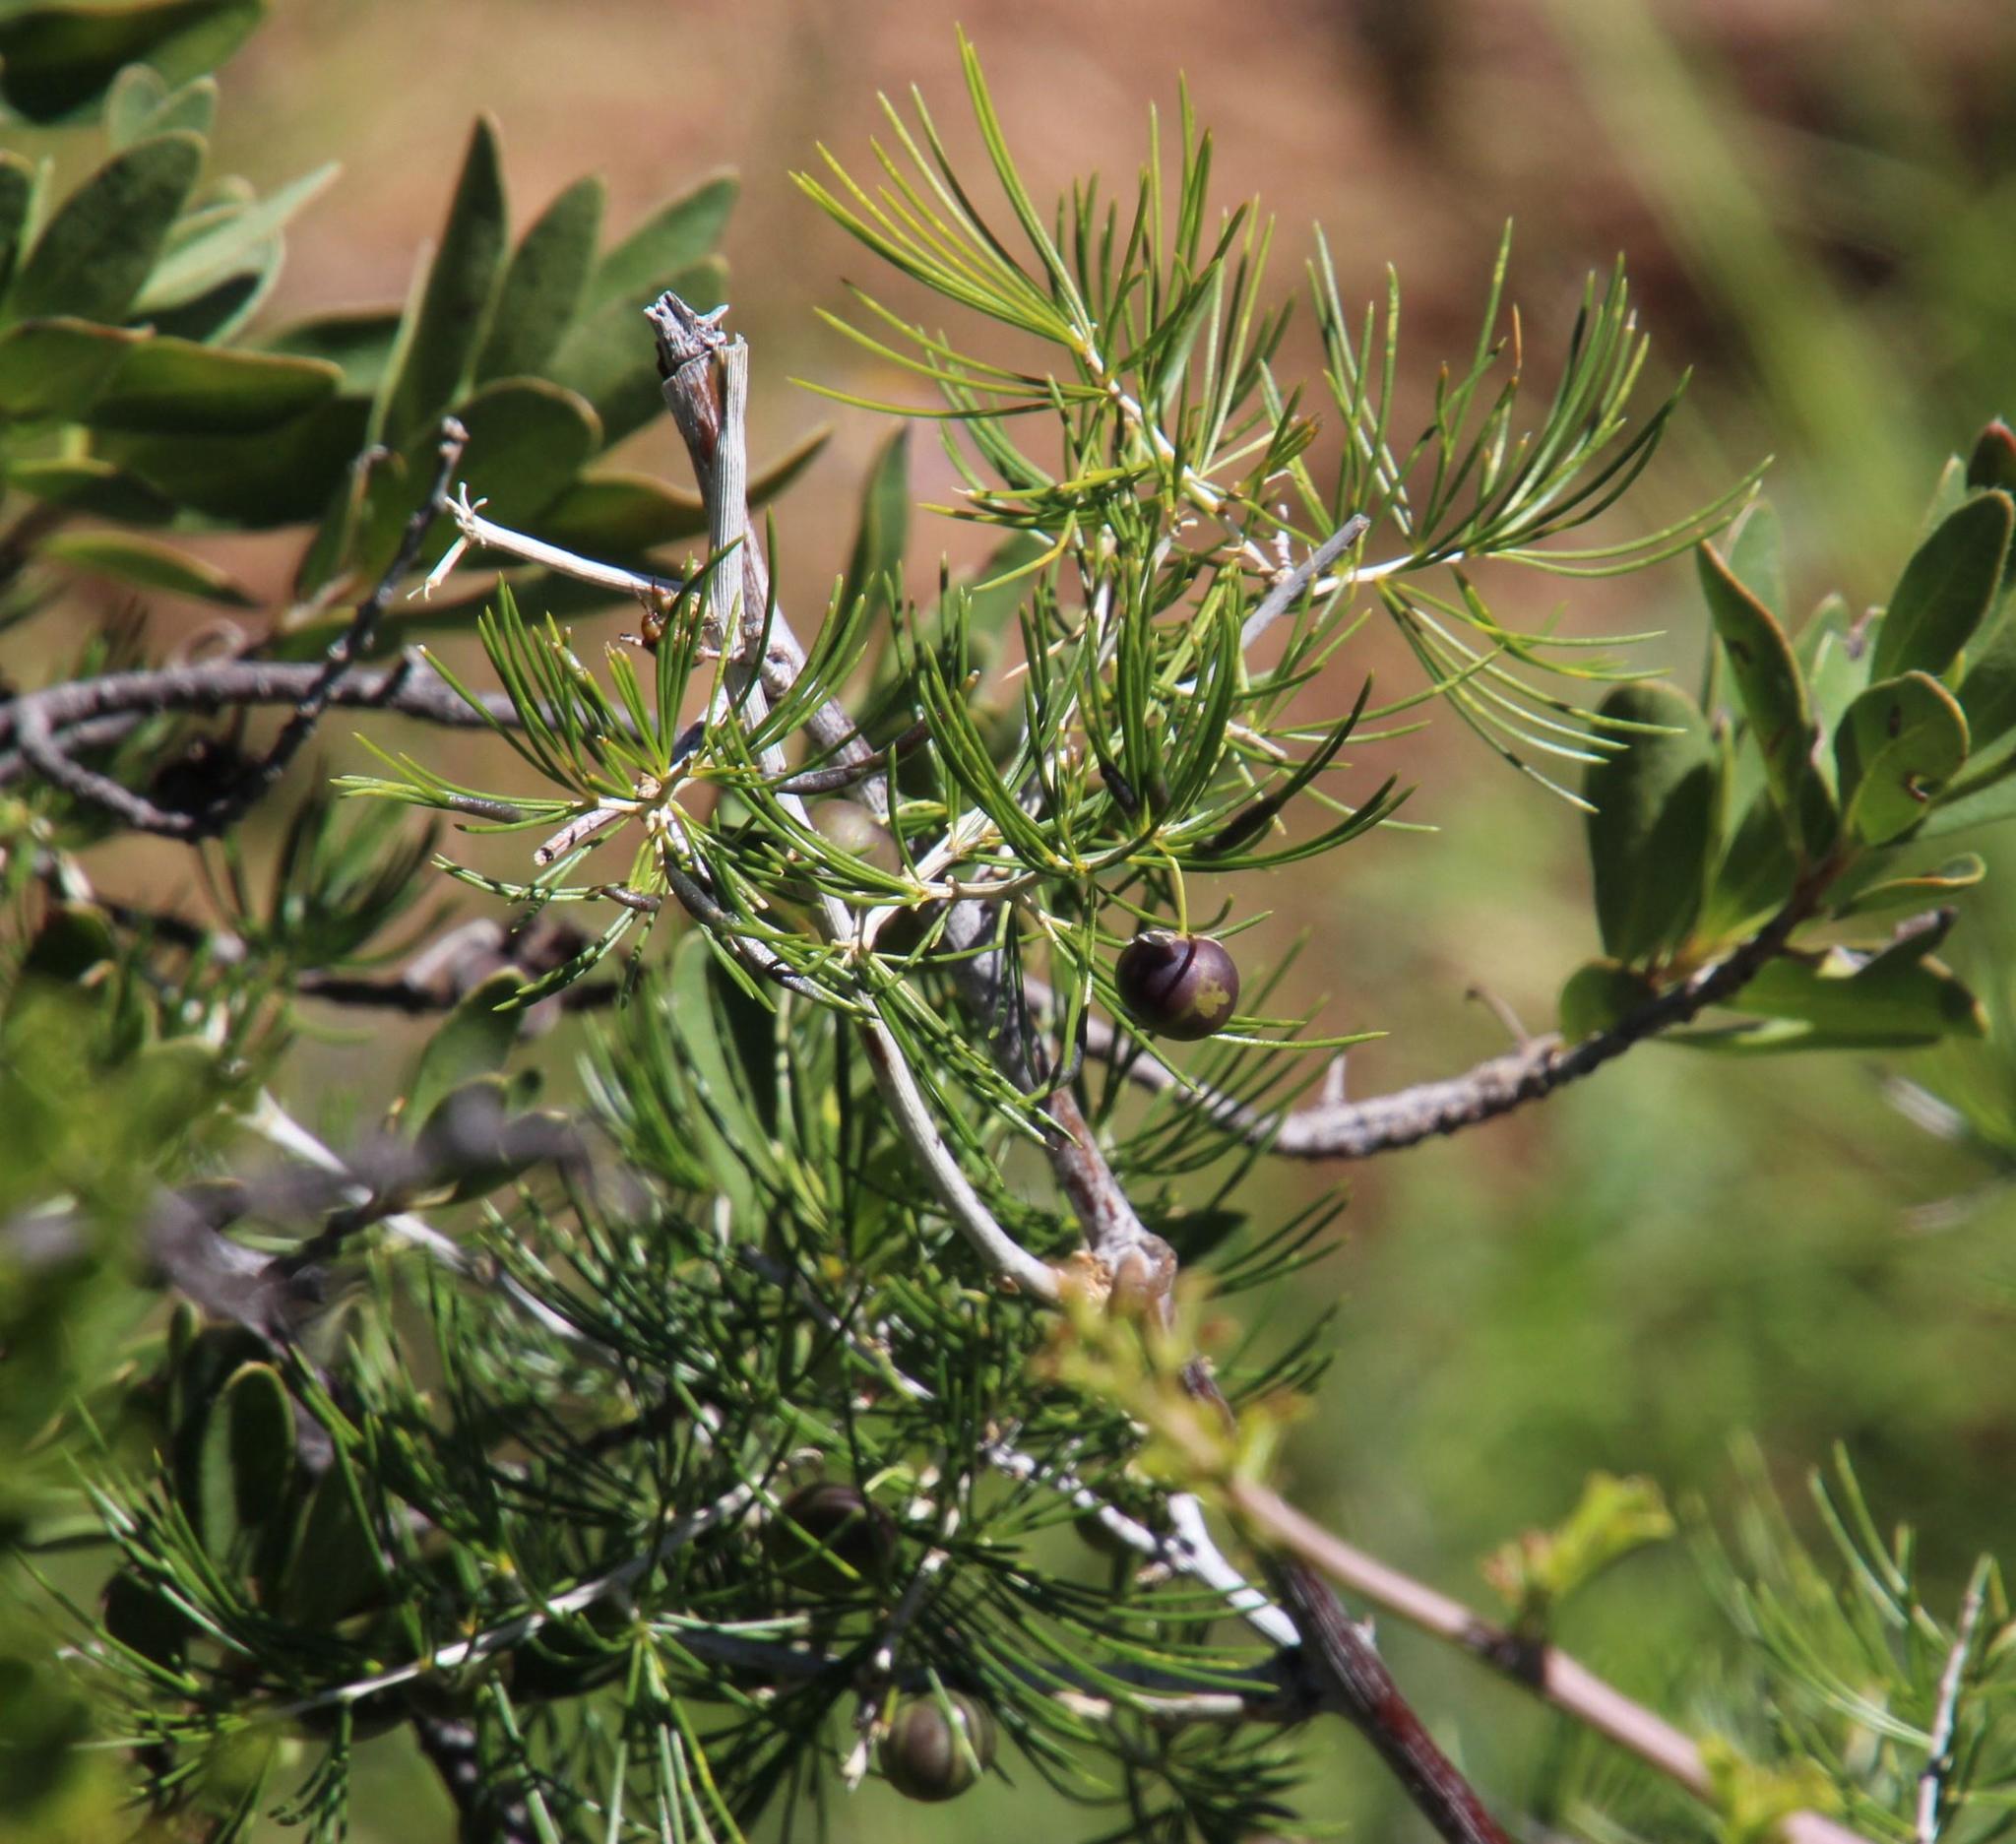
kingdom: Plantae
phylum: Tracheophyta
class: Liliopsida
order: Asparagales
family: Asparagaceae
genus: Asparagus
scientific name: Asparagus retrofractus
